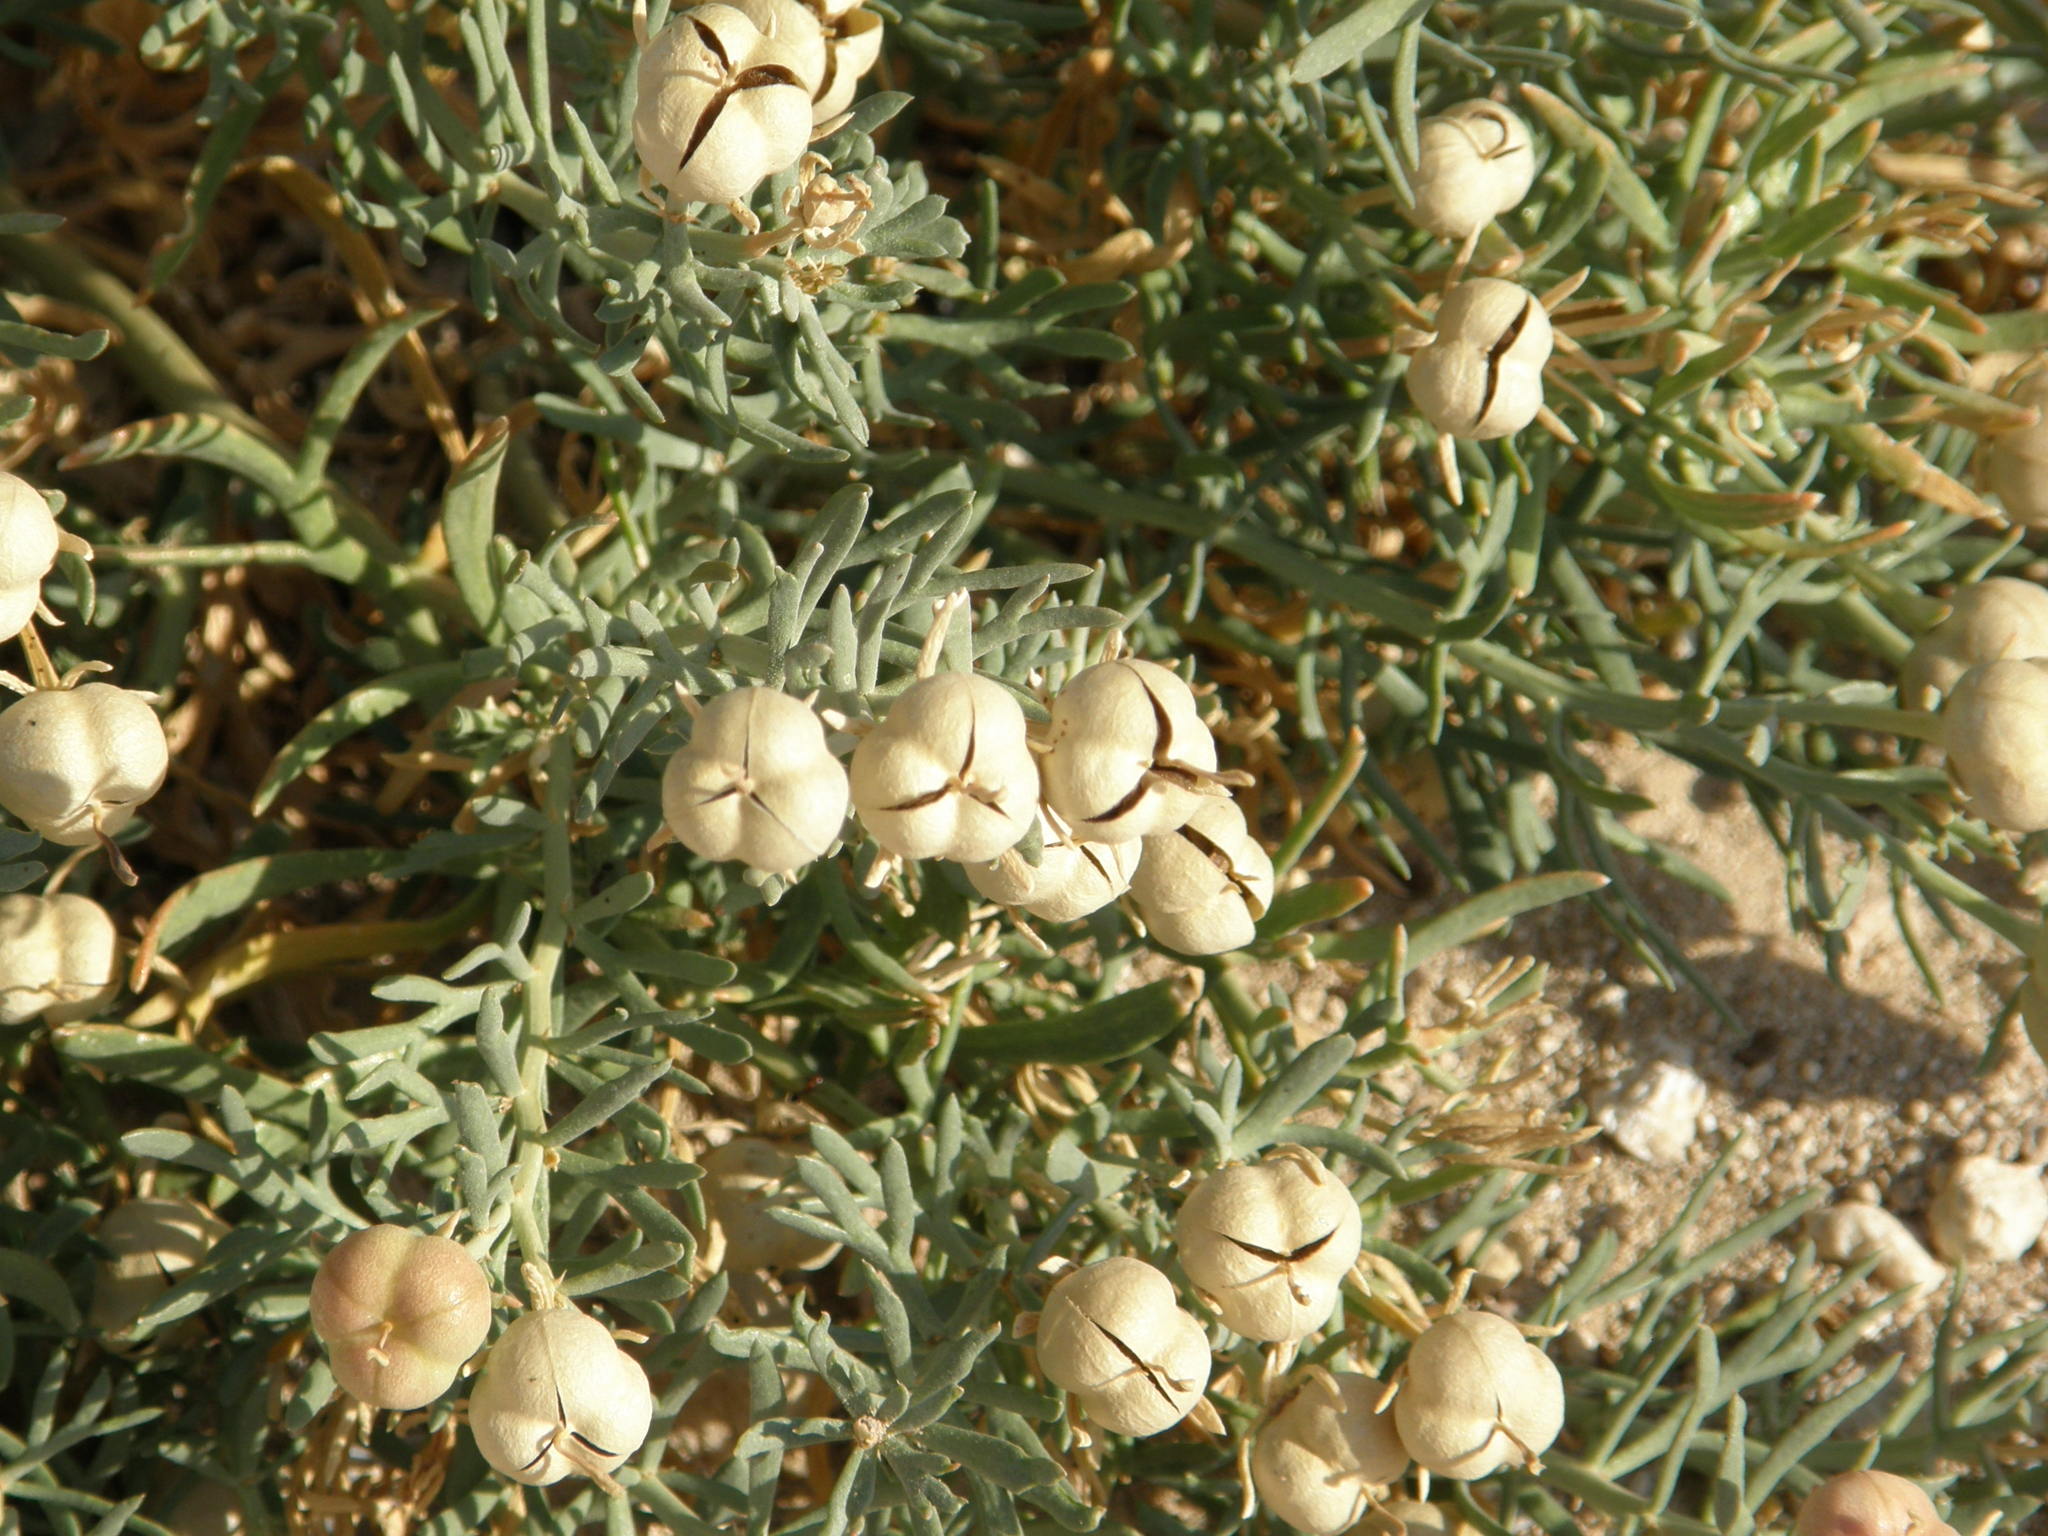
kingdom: Plantae
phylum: Tracheophyta
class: Magnoliopsida
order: Sapindales
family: Tetradiclidaceae
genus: Peganum
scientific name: Peganum harmala
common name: Harmal peganum
